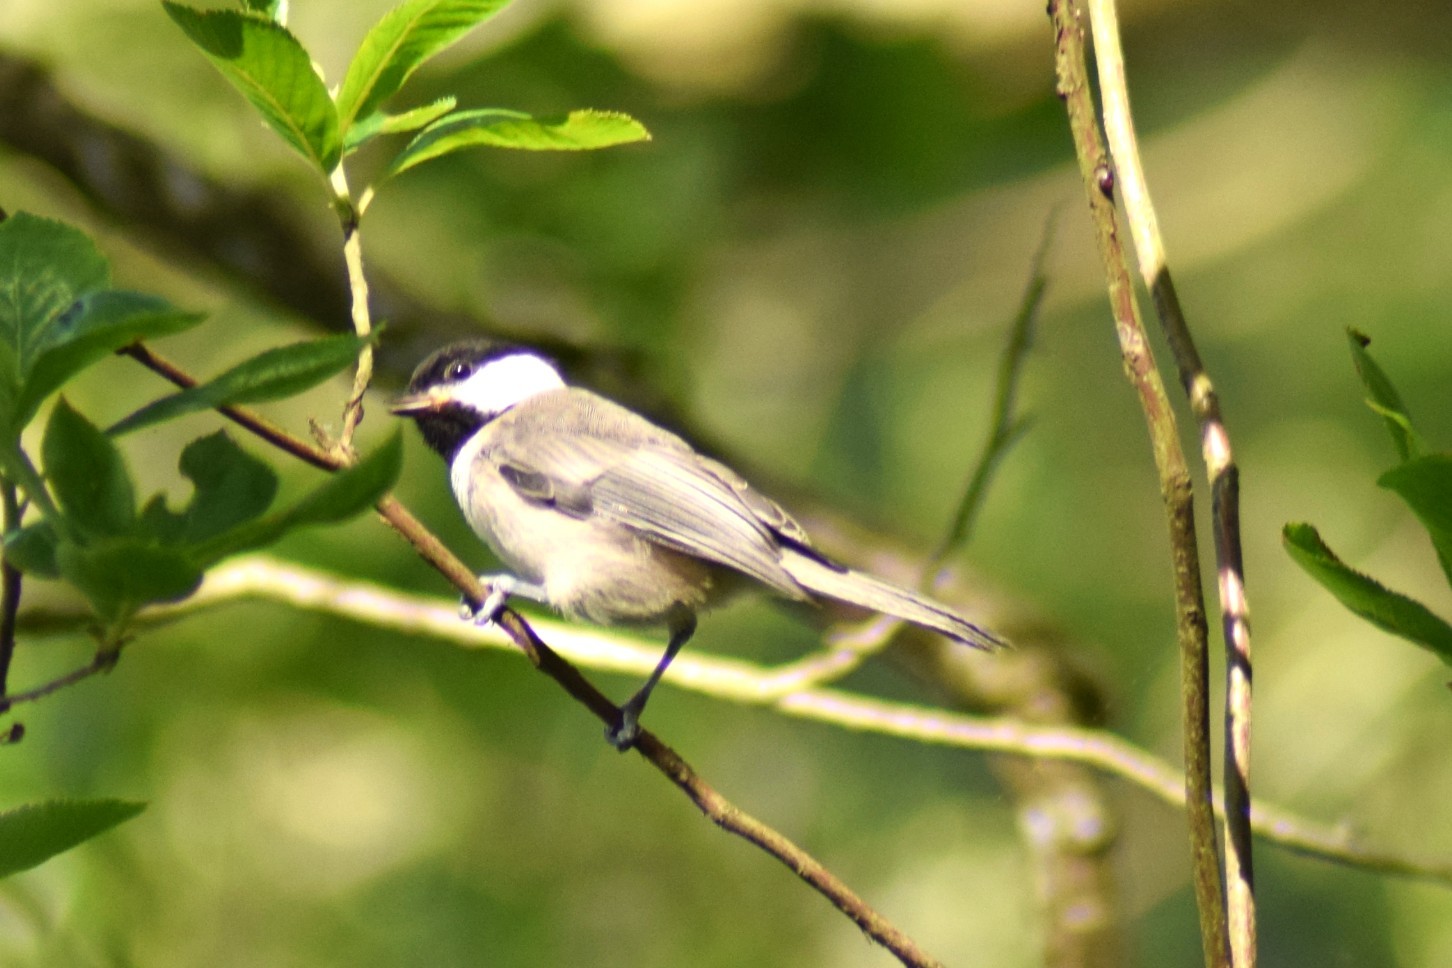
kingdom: Animalia
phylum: Chordata
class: Aves
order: Passeriformes
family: Paridae
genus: Poecile
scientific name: Poecile carolinensis
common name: Carolina chickadee
